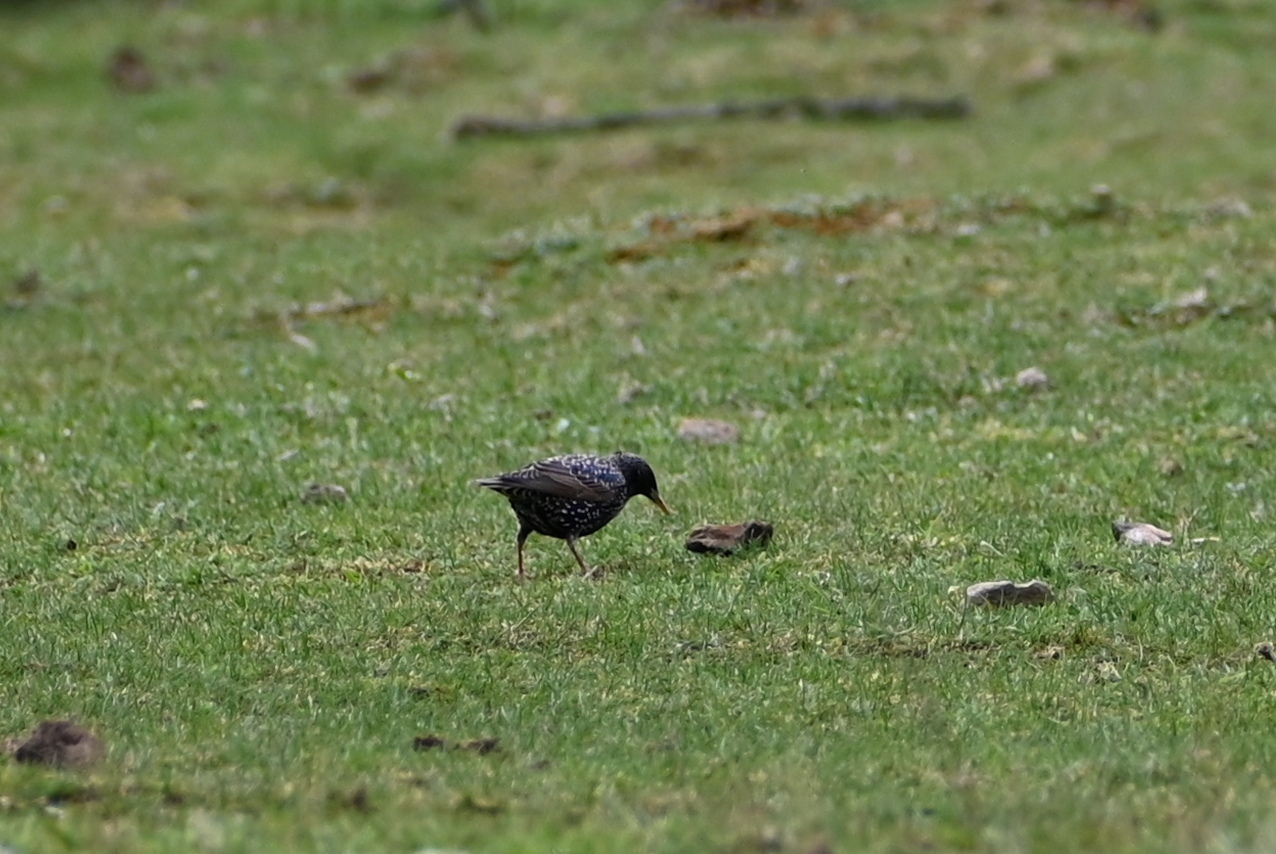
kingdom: Animalia
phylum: Chordata
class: Aves
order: Passeriformes
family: Sturnidae
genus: Sturnus
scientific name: Sturnus vulgaris
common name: Common starling
